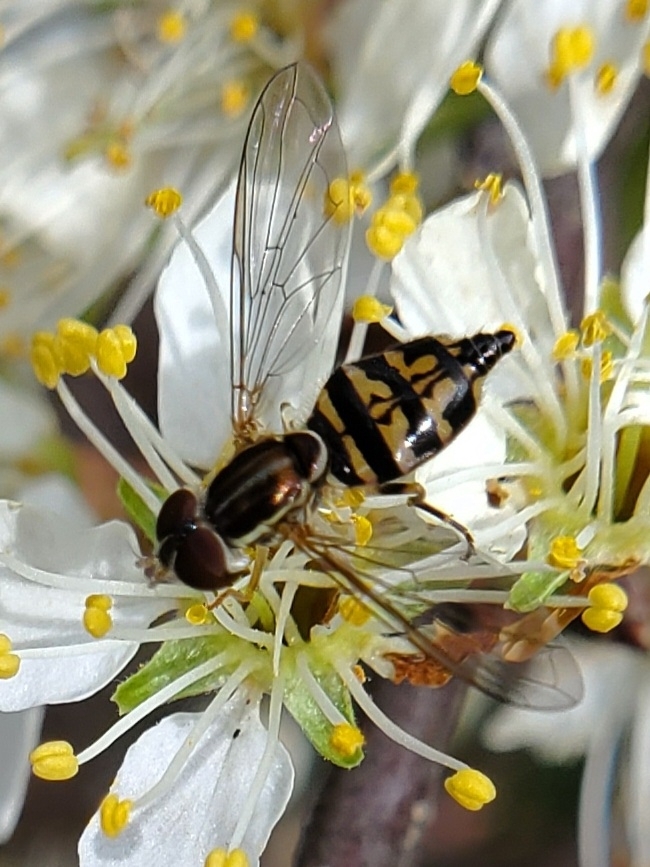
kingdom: Animalia
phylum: Arthropoda
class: Insecta
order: Diptera
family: Syrphidae
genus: Toxomerus
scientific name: Toxomerus geminatus
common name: Eastern calligrapher
